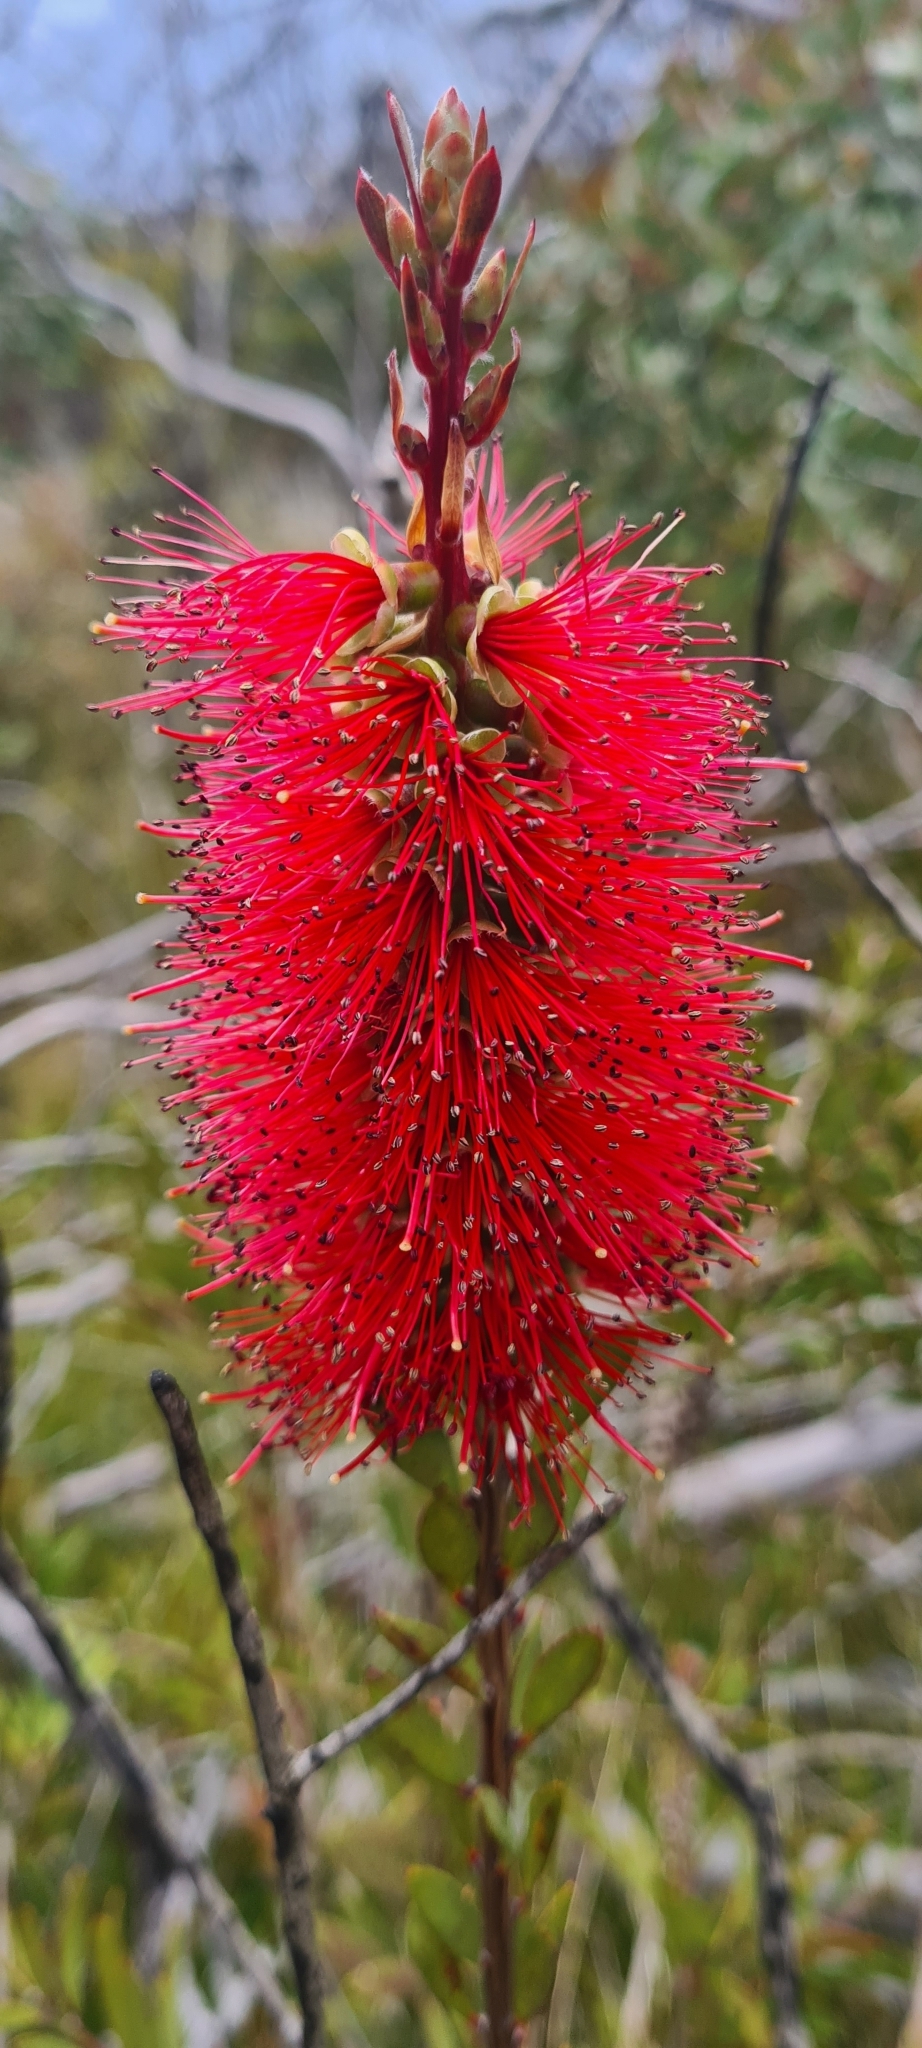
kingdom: Plantae
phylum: Tracheophyta
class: Magnoliopsida
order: Myrtales
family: Myrtaceae
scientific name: Myrtaceae
